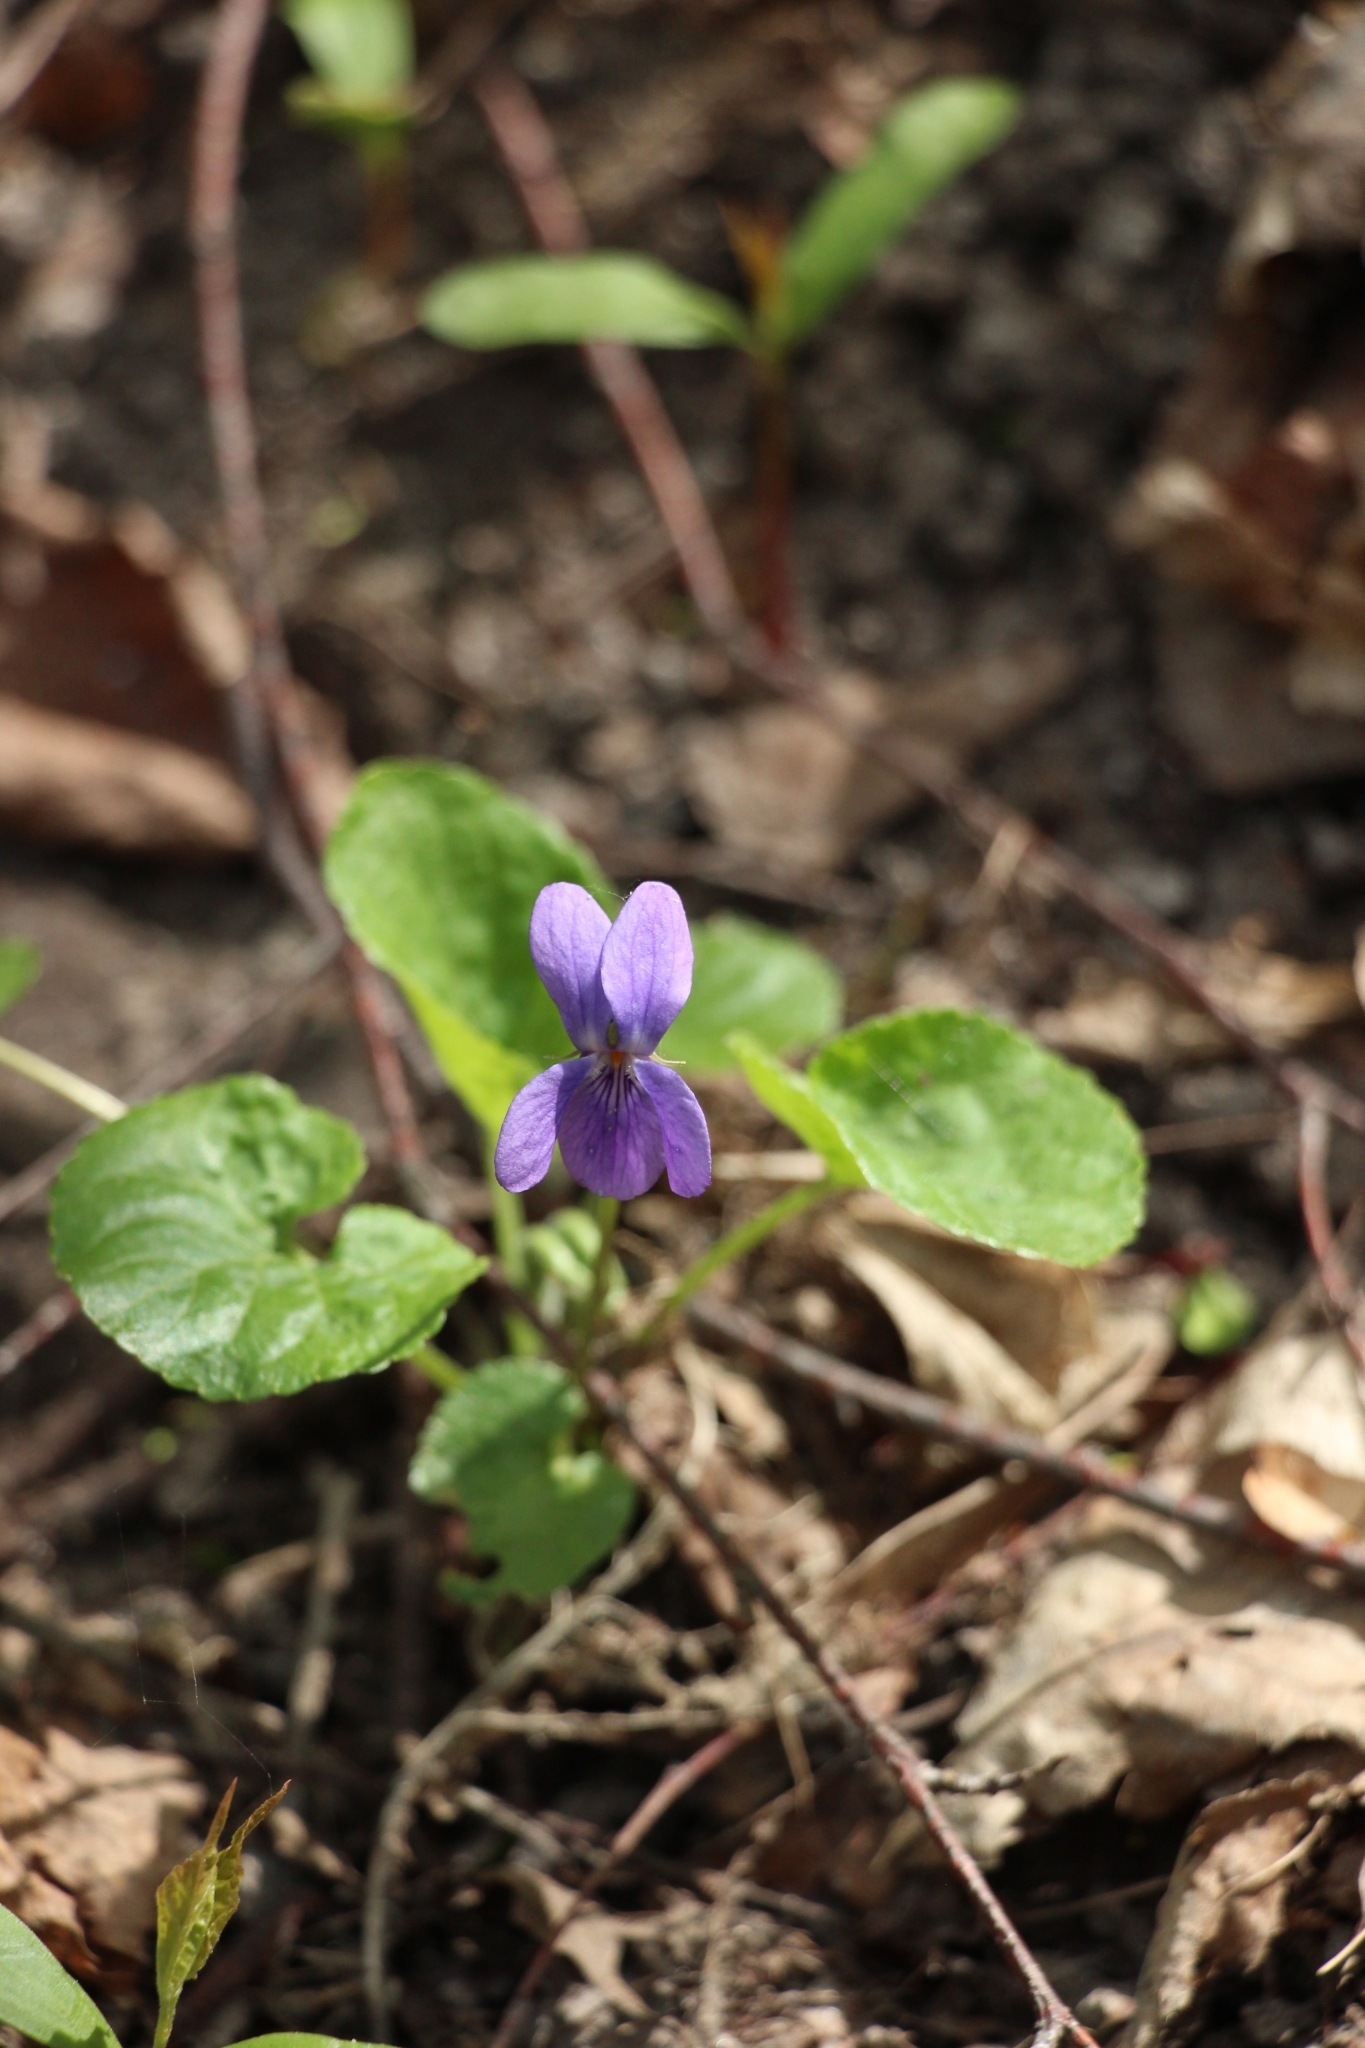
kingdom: Plantae
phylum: Tracheophyta
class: Magnoliopsida
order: Malpighiales
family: Violaceae
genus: Viola
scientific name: Viola odorata
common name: Sweet violet
